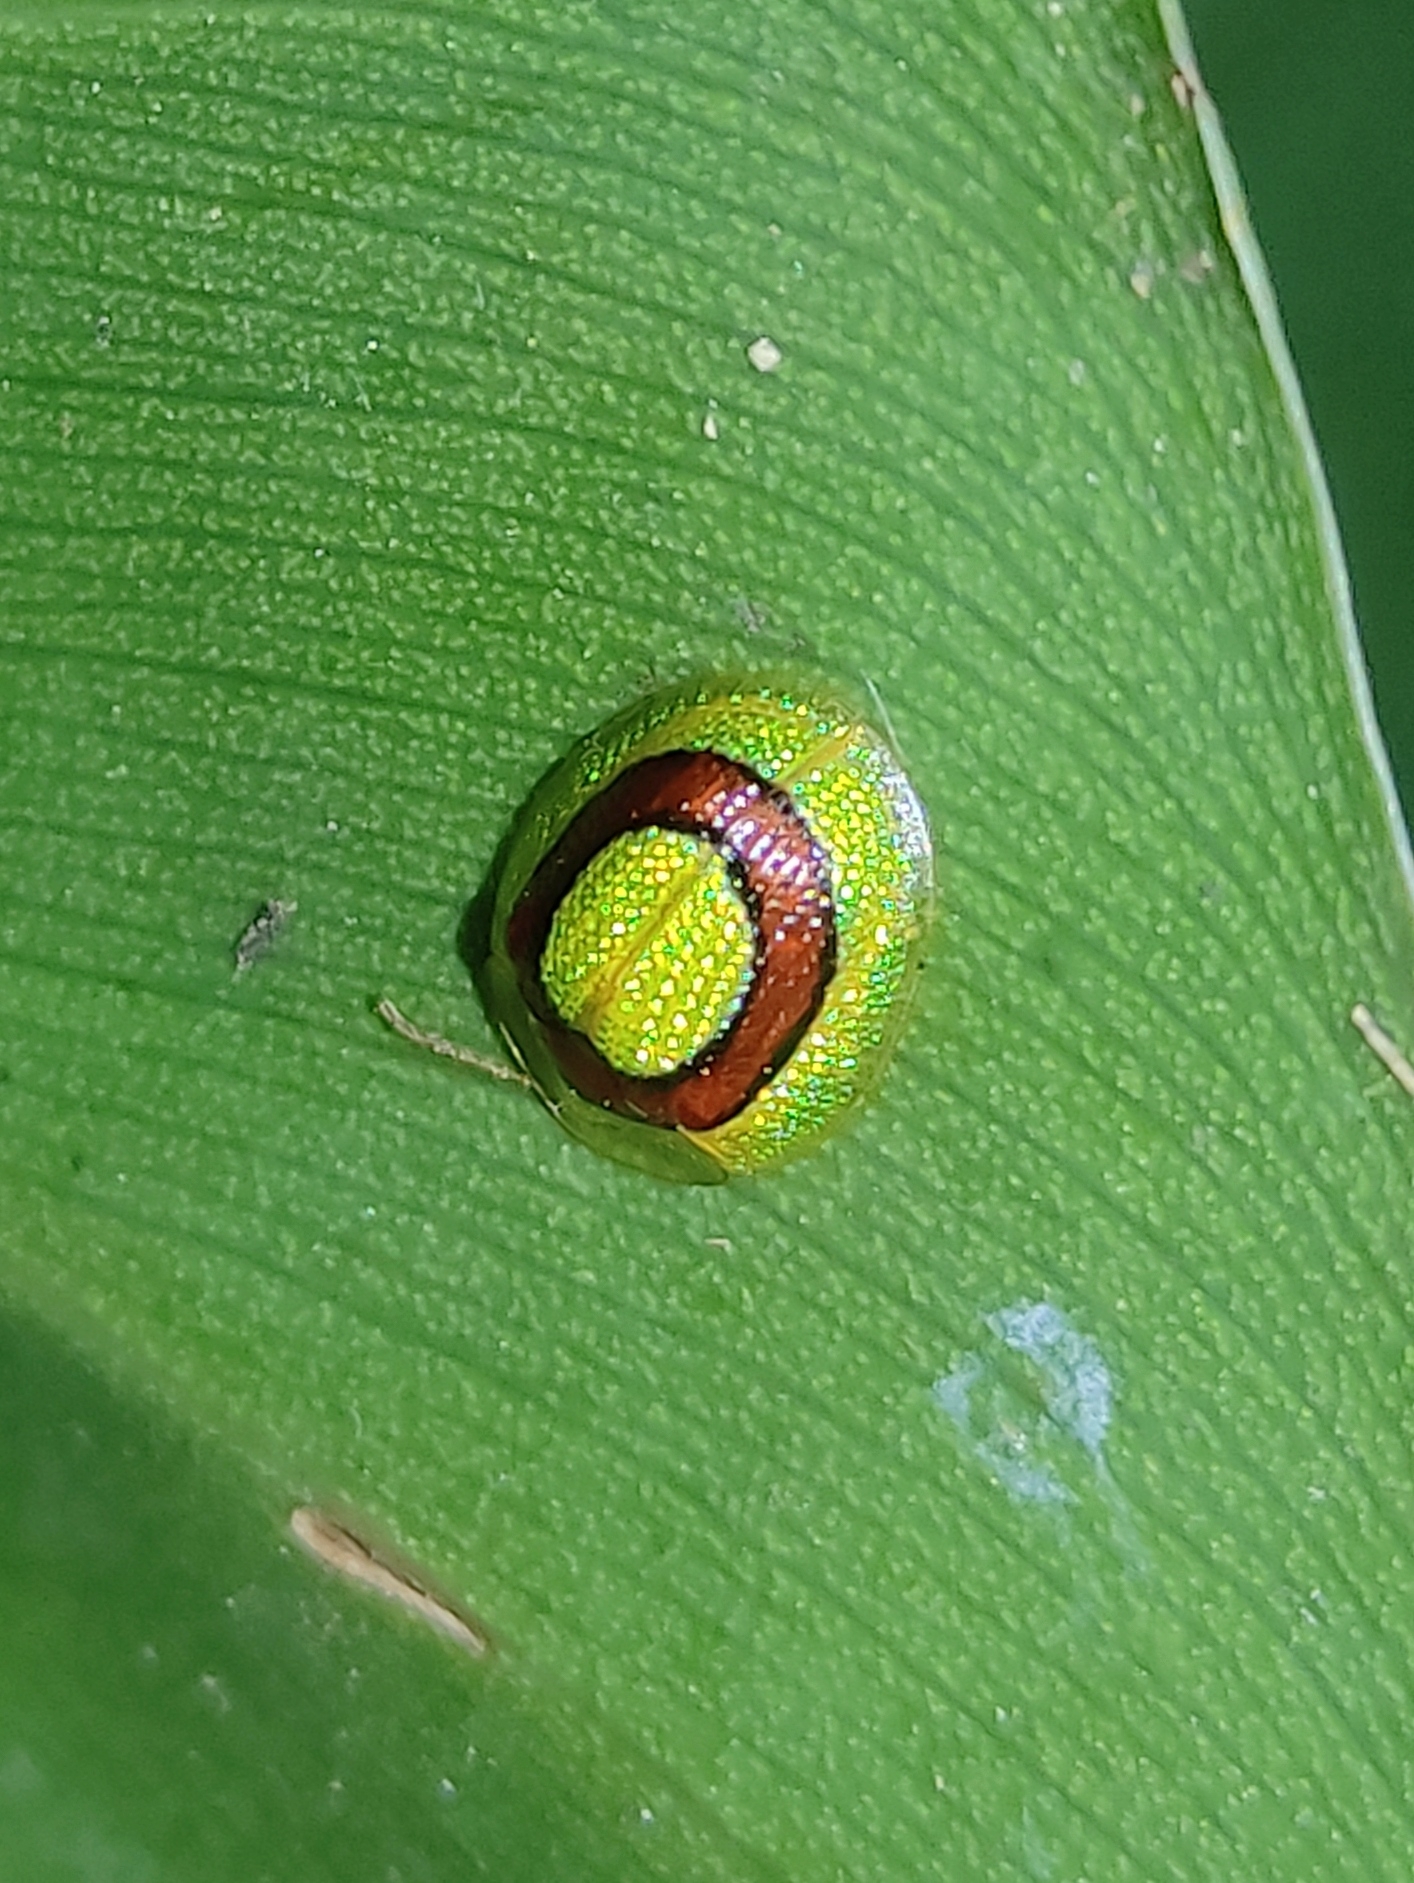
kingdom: Animalia
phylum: Arthropoda
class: Insecta
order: Coleoptera
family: Chrysomelidae
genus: Charidotis
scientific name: Charidotis mansueta
